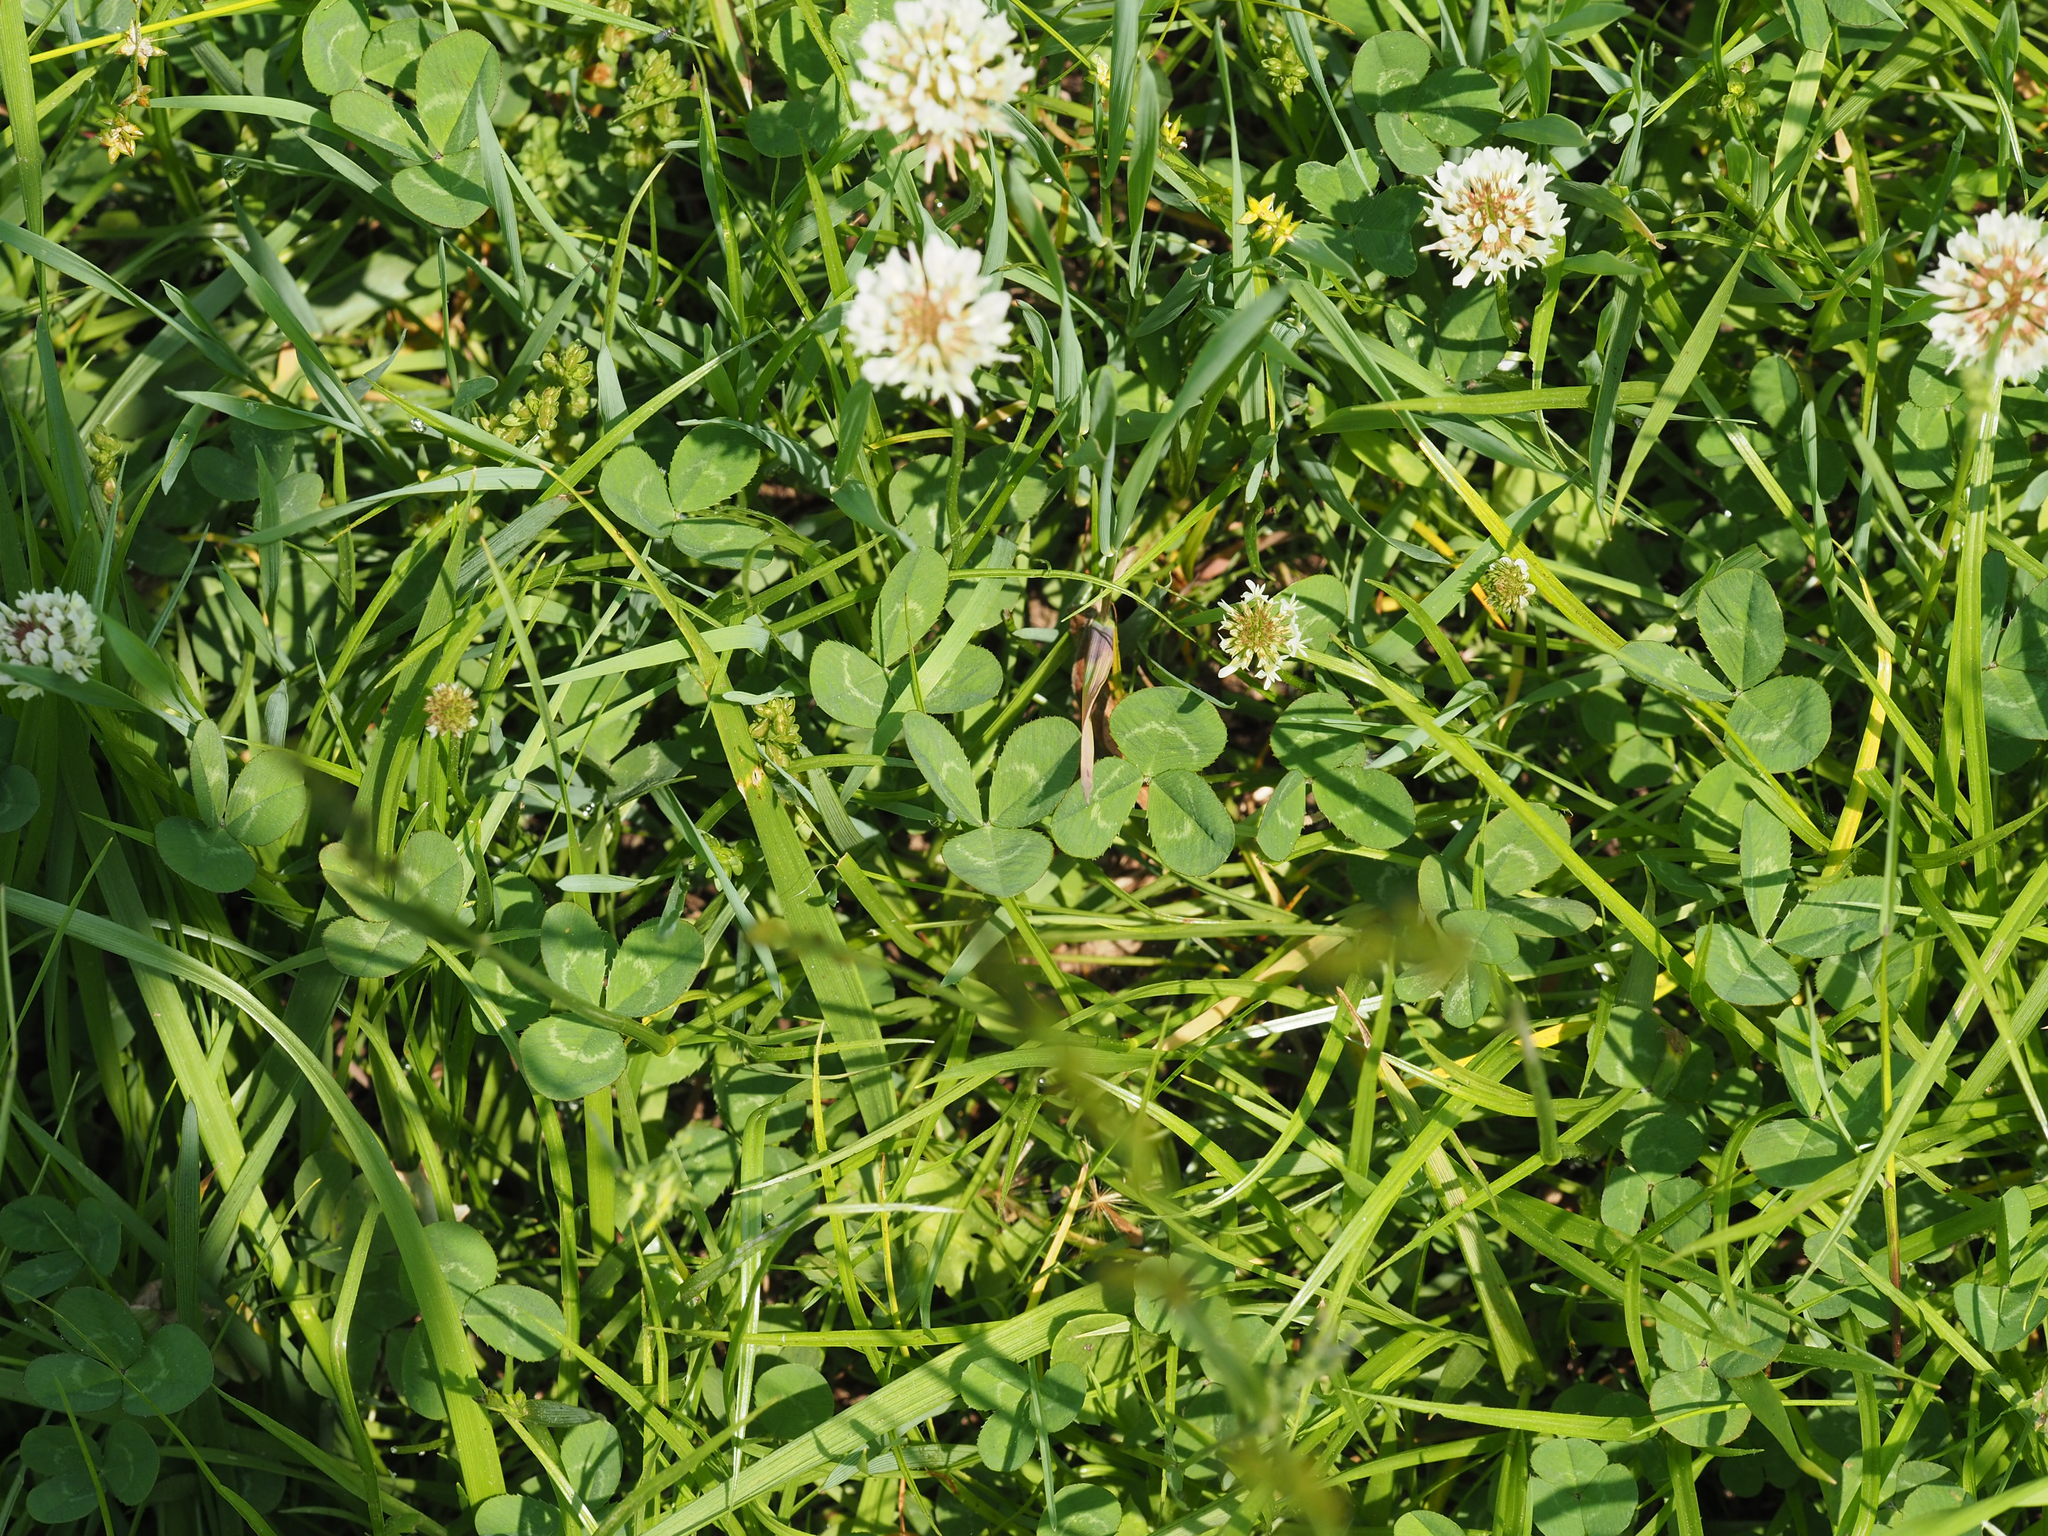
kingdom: Plantae
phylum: Tracheophyta
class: Magnoliopsida
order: Fabales
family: Fabaceae
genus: Trifolium
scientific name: Trifolium repens
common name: White clover
